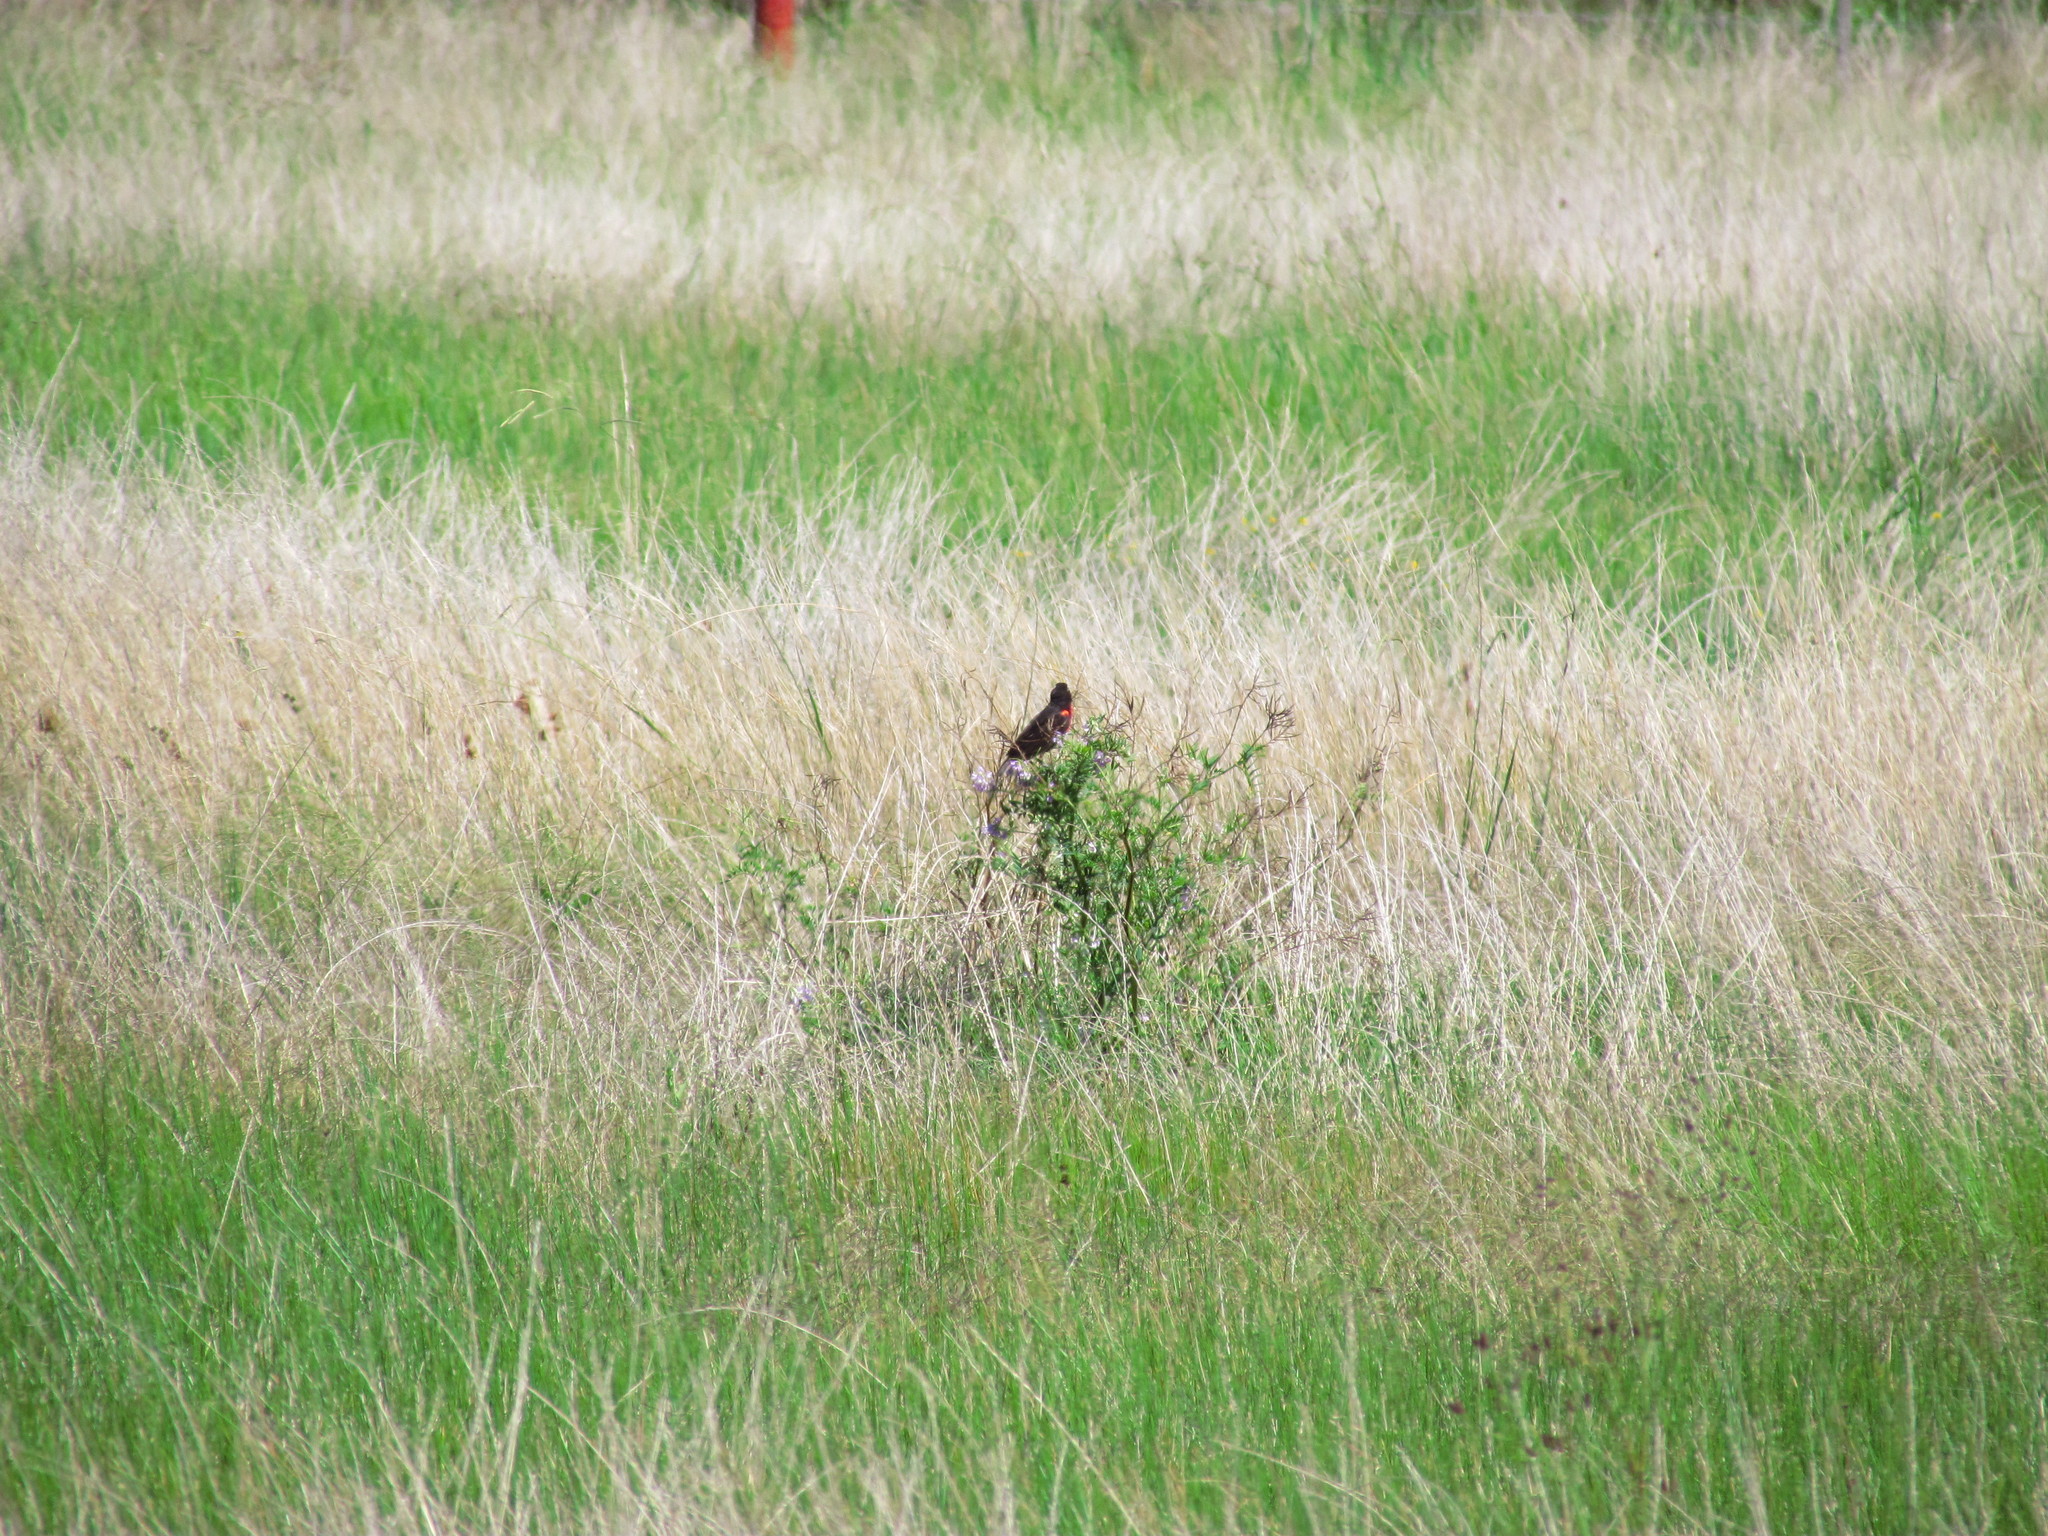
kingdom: Animalia
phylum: Chordata
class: Aves
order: Passeriformes
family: Icteridae
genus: Sturnella
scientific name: Sturnella superciliaris
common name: White-browed blackbird
